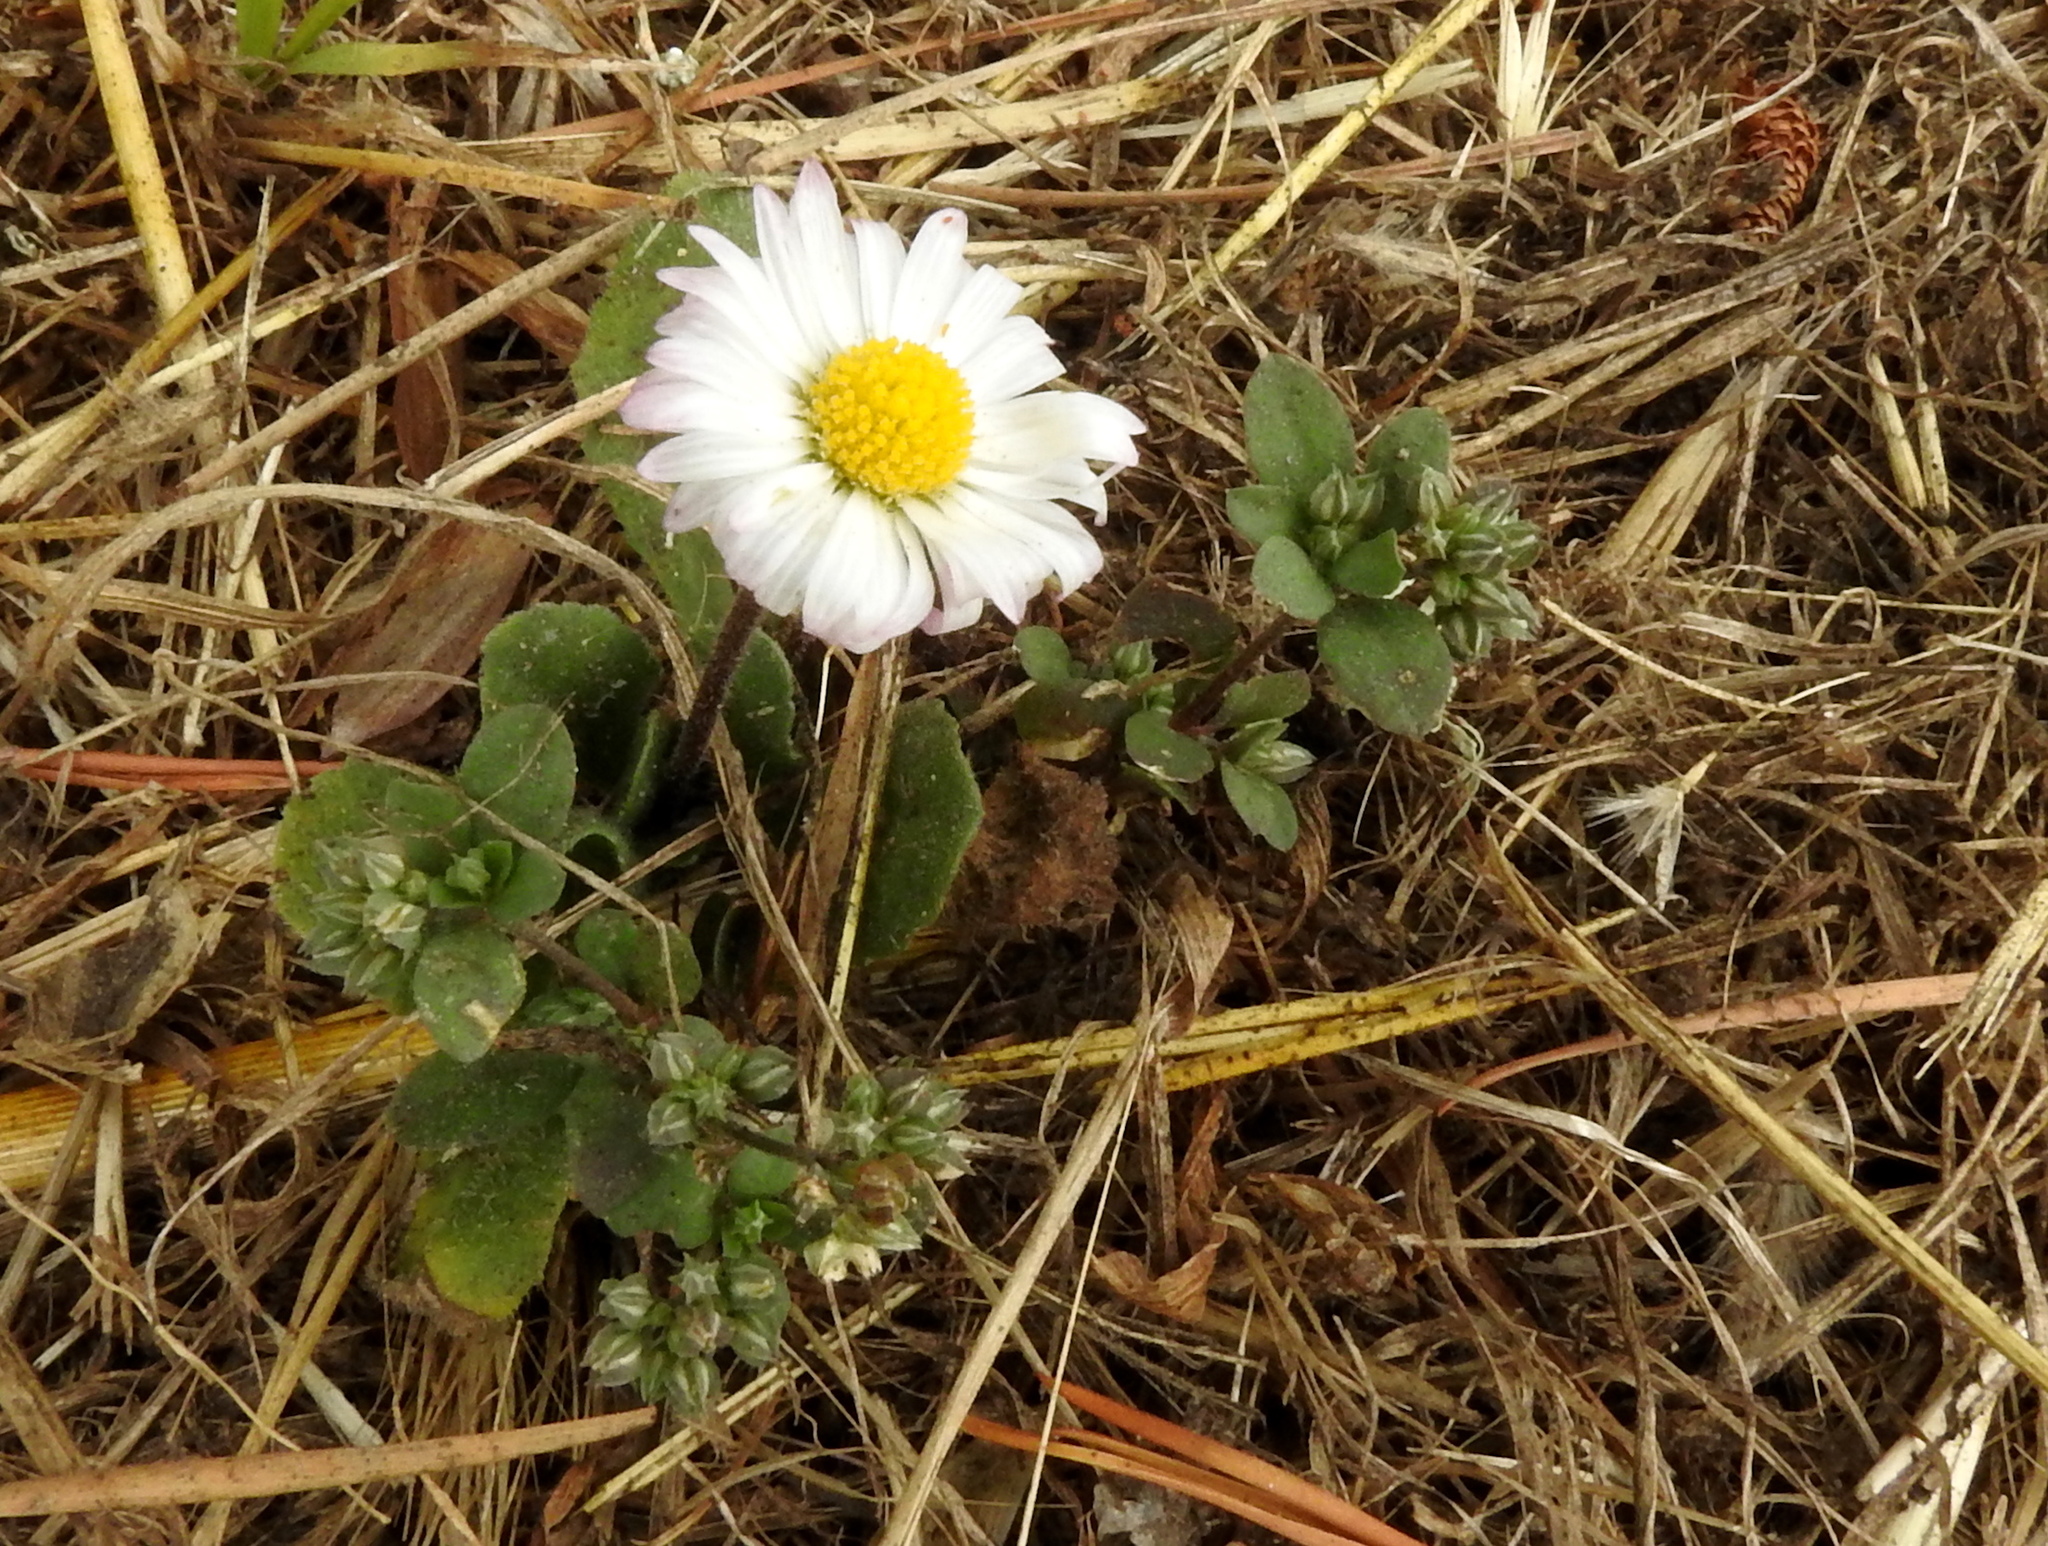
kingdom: Plantae
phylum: Tracheophyta
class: Magnoliopsida
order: Caryophyllales
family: Caryophyllaceae
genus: Polycarpon
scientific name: Polycarpon tetraphyllum
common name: Four-leaved all-seed
